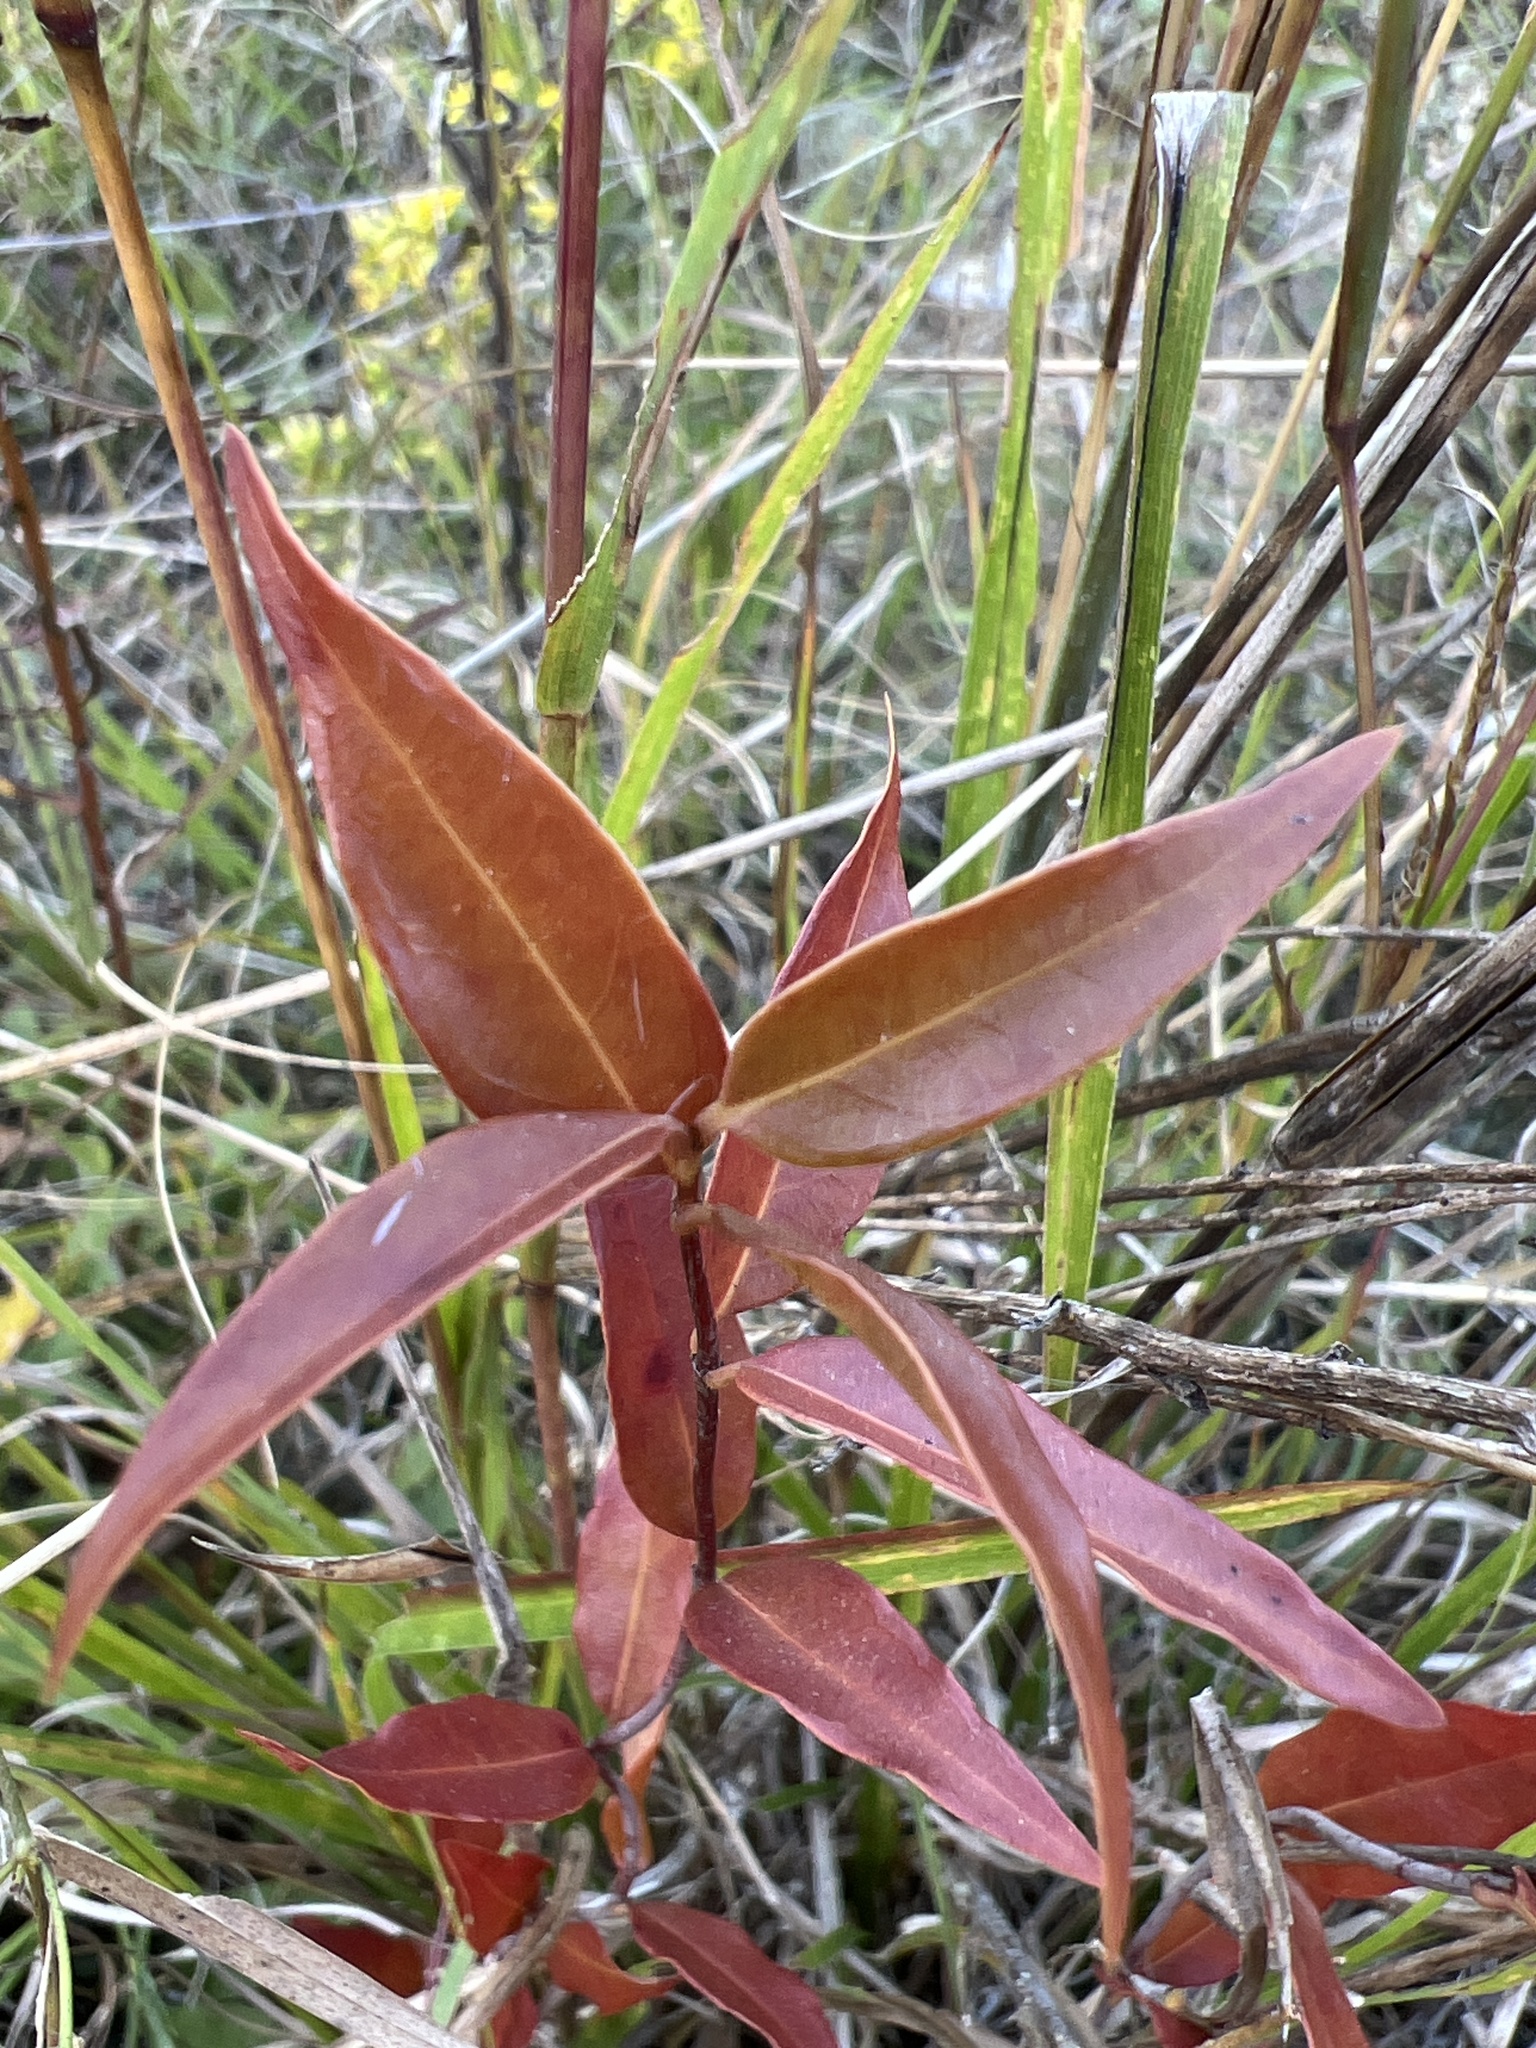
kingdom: Plantae
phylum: Tracheophyta
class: Magnoliopsida
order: Gentianales
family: Gelsemiaceae
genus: Gelsemium
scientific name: Gelsemium sempervirens
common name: Carolina-jasmine
